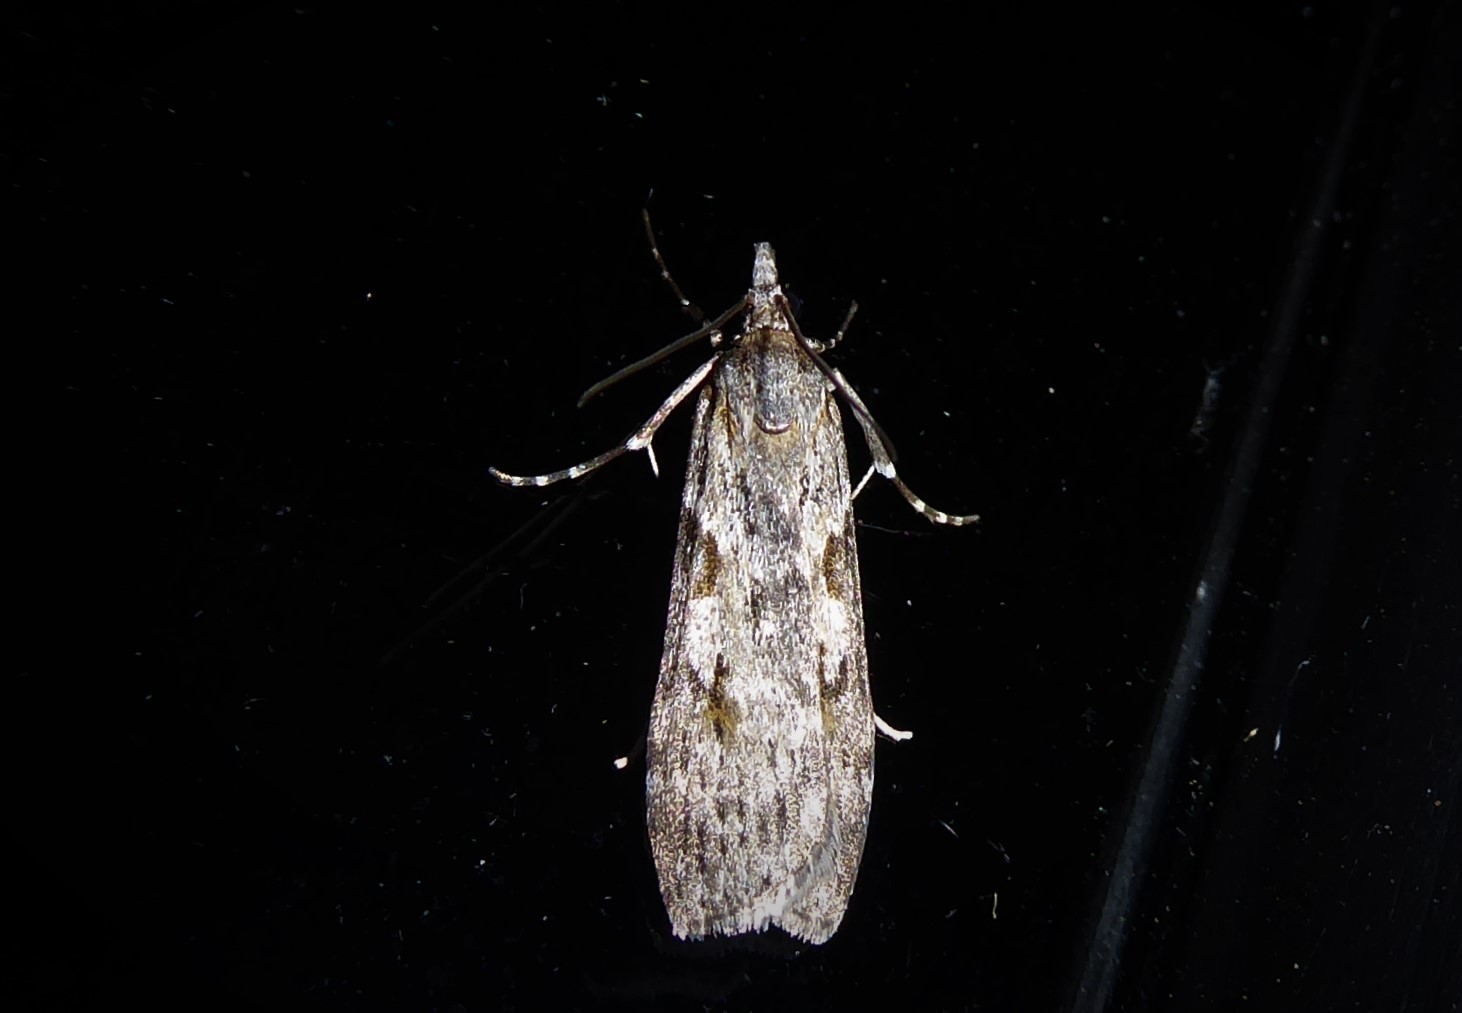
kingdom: Animalia
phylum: Arthropoda
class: Insecta
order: Lepidoptera
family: Crambidae
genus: Scoparia
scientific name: Scoparia halopis
